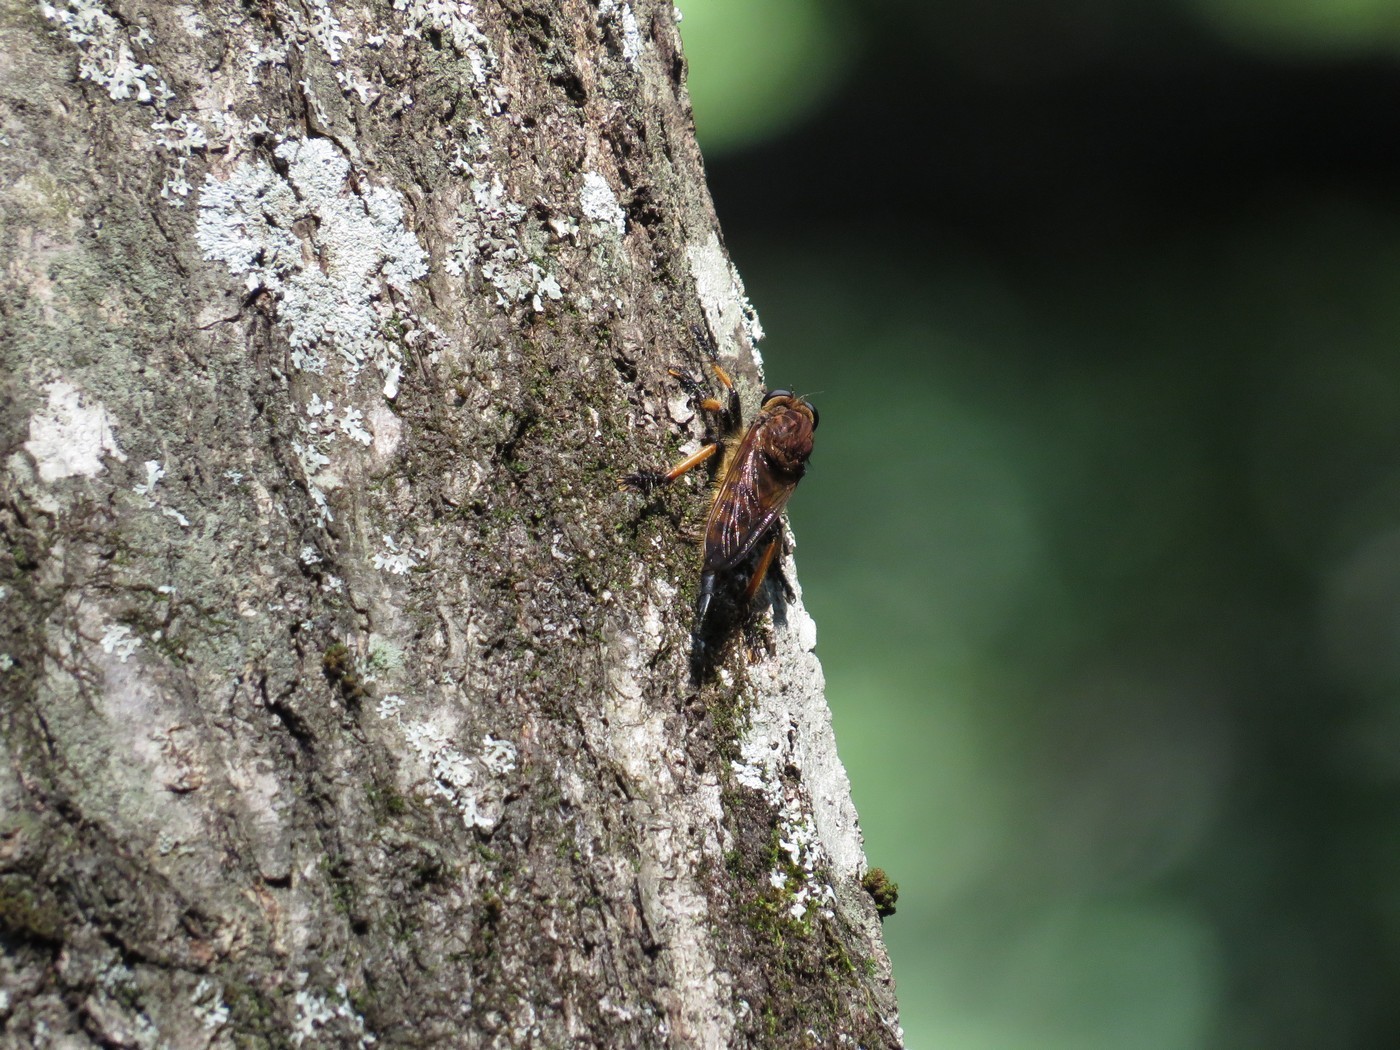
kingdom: Animalia
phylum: Arthropoda
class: Insecta
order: Diptera
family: Asilidae
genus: Promachus
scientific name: Promachus rufipes
